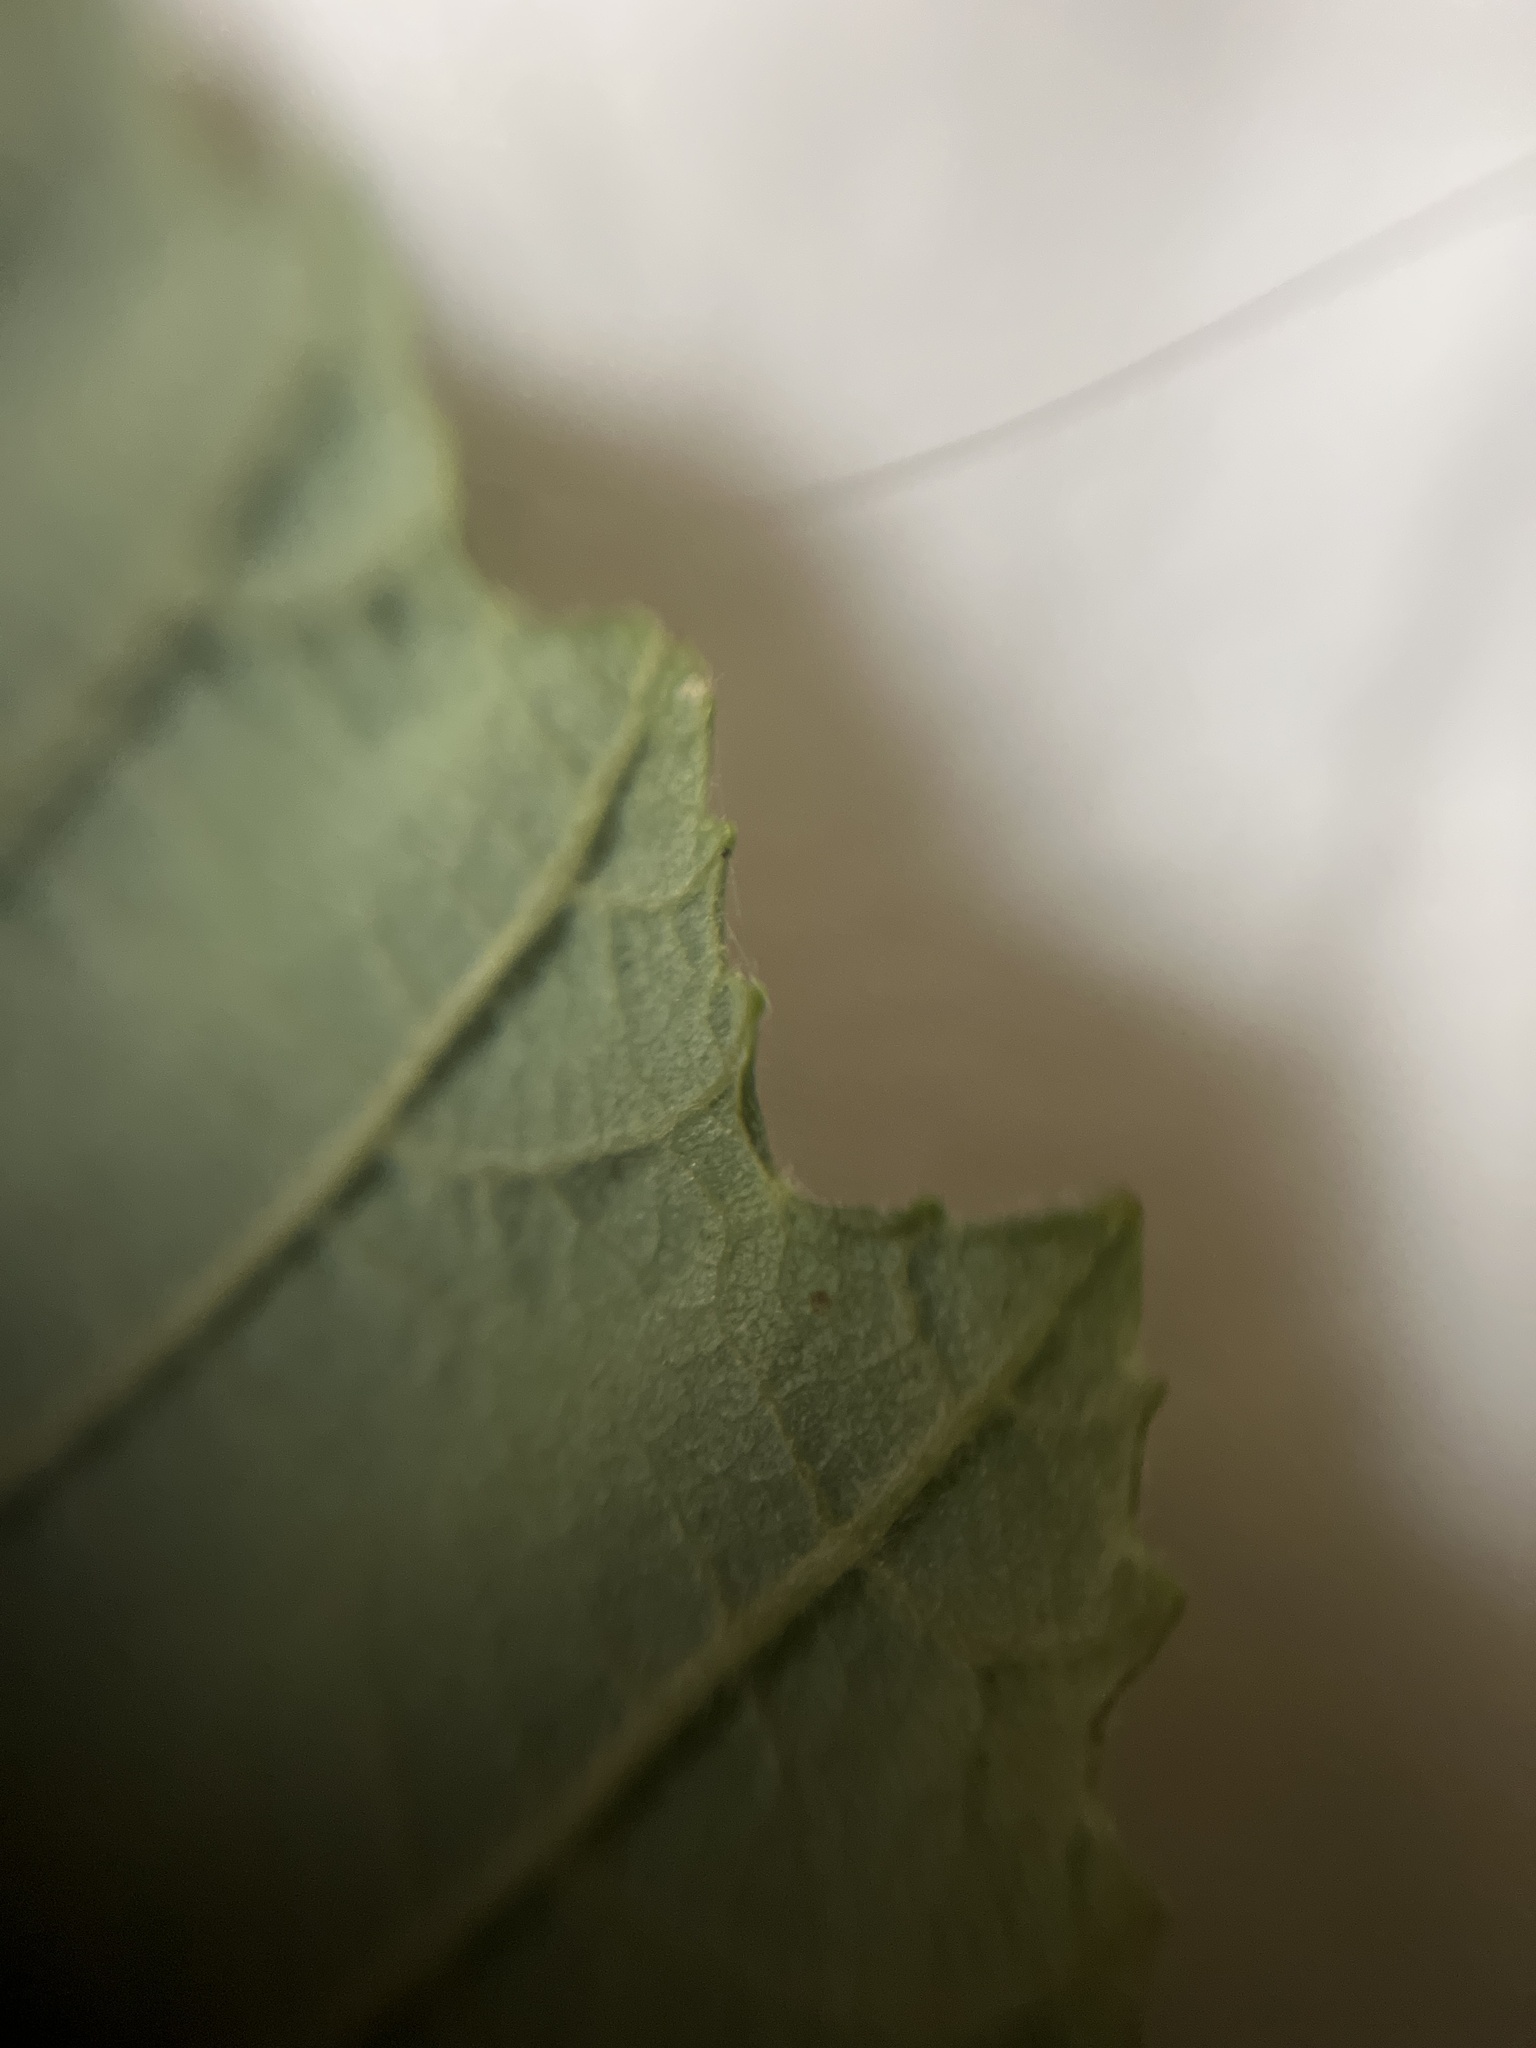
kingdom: Plantae
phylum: Tracheophyta
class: Magnoliopsida
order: Fagales
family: Betulaceae
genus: Alnus
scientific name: Alnus incana
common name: Grey alder
